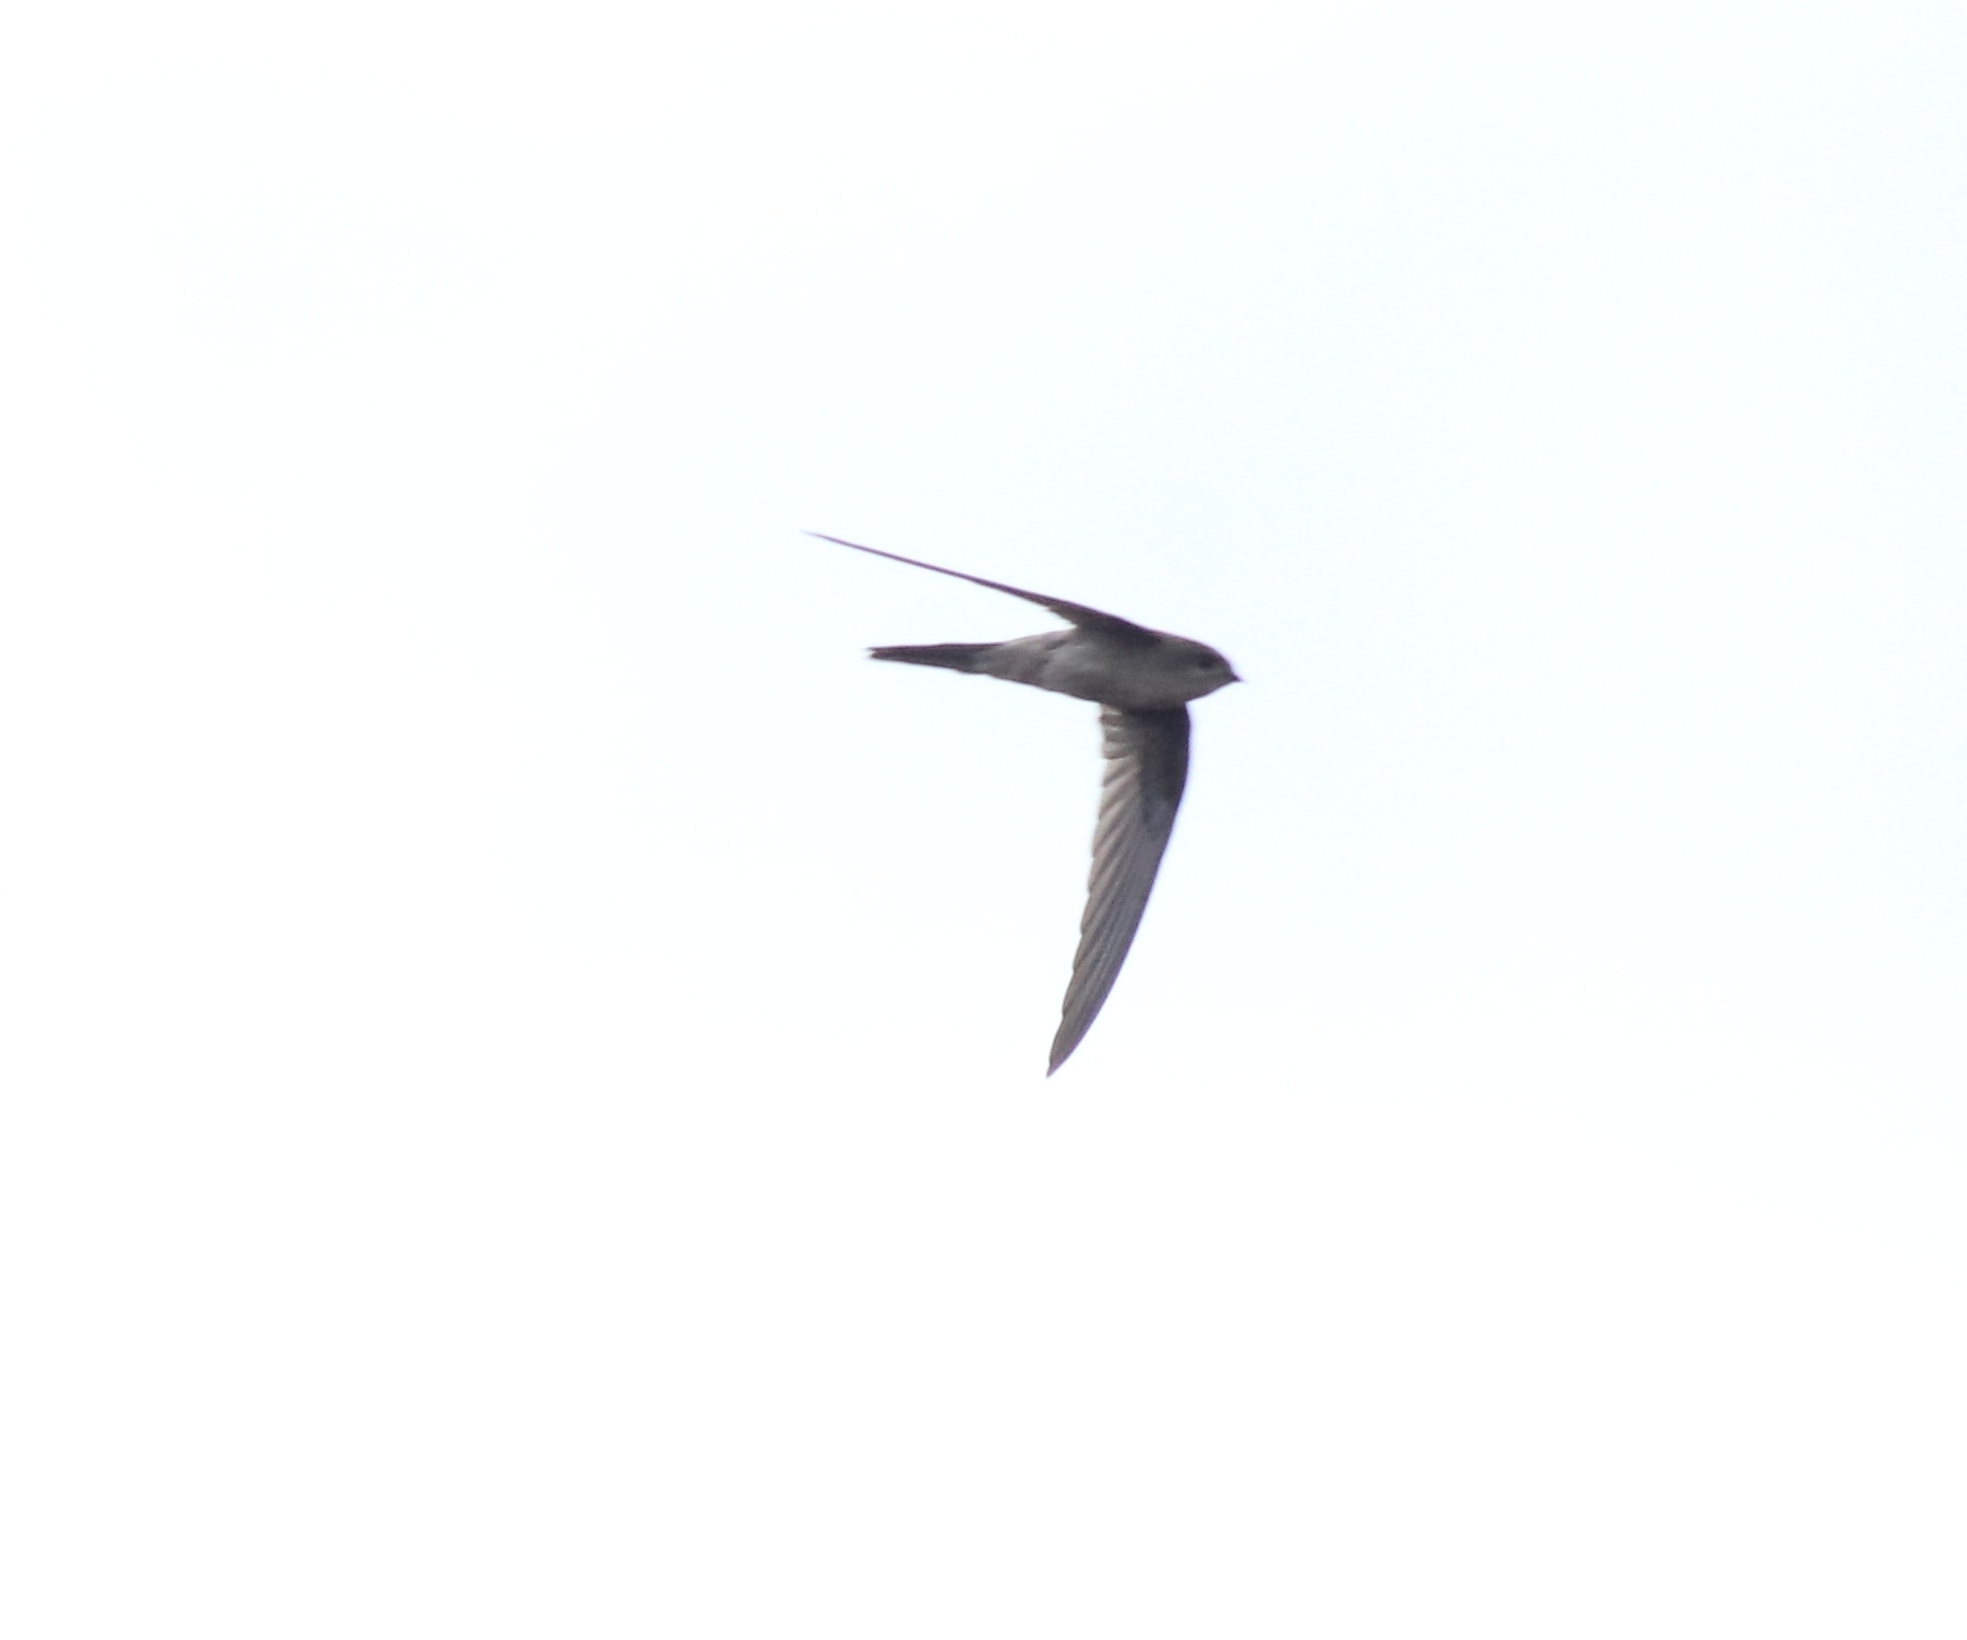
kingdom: Animalia
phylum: Chordata
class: Aves
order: Apodiformes
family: Apodidae
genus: Cypsiurus
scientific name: Cypsiurus balasiensis
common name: Asian palm swift
